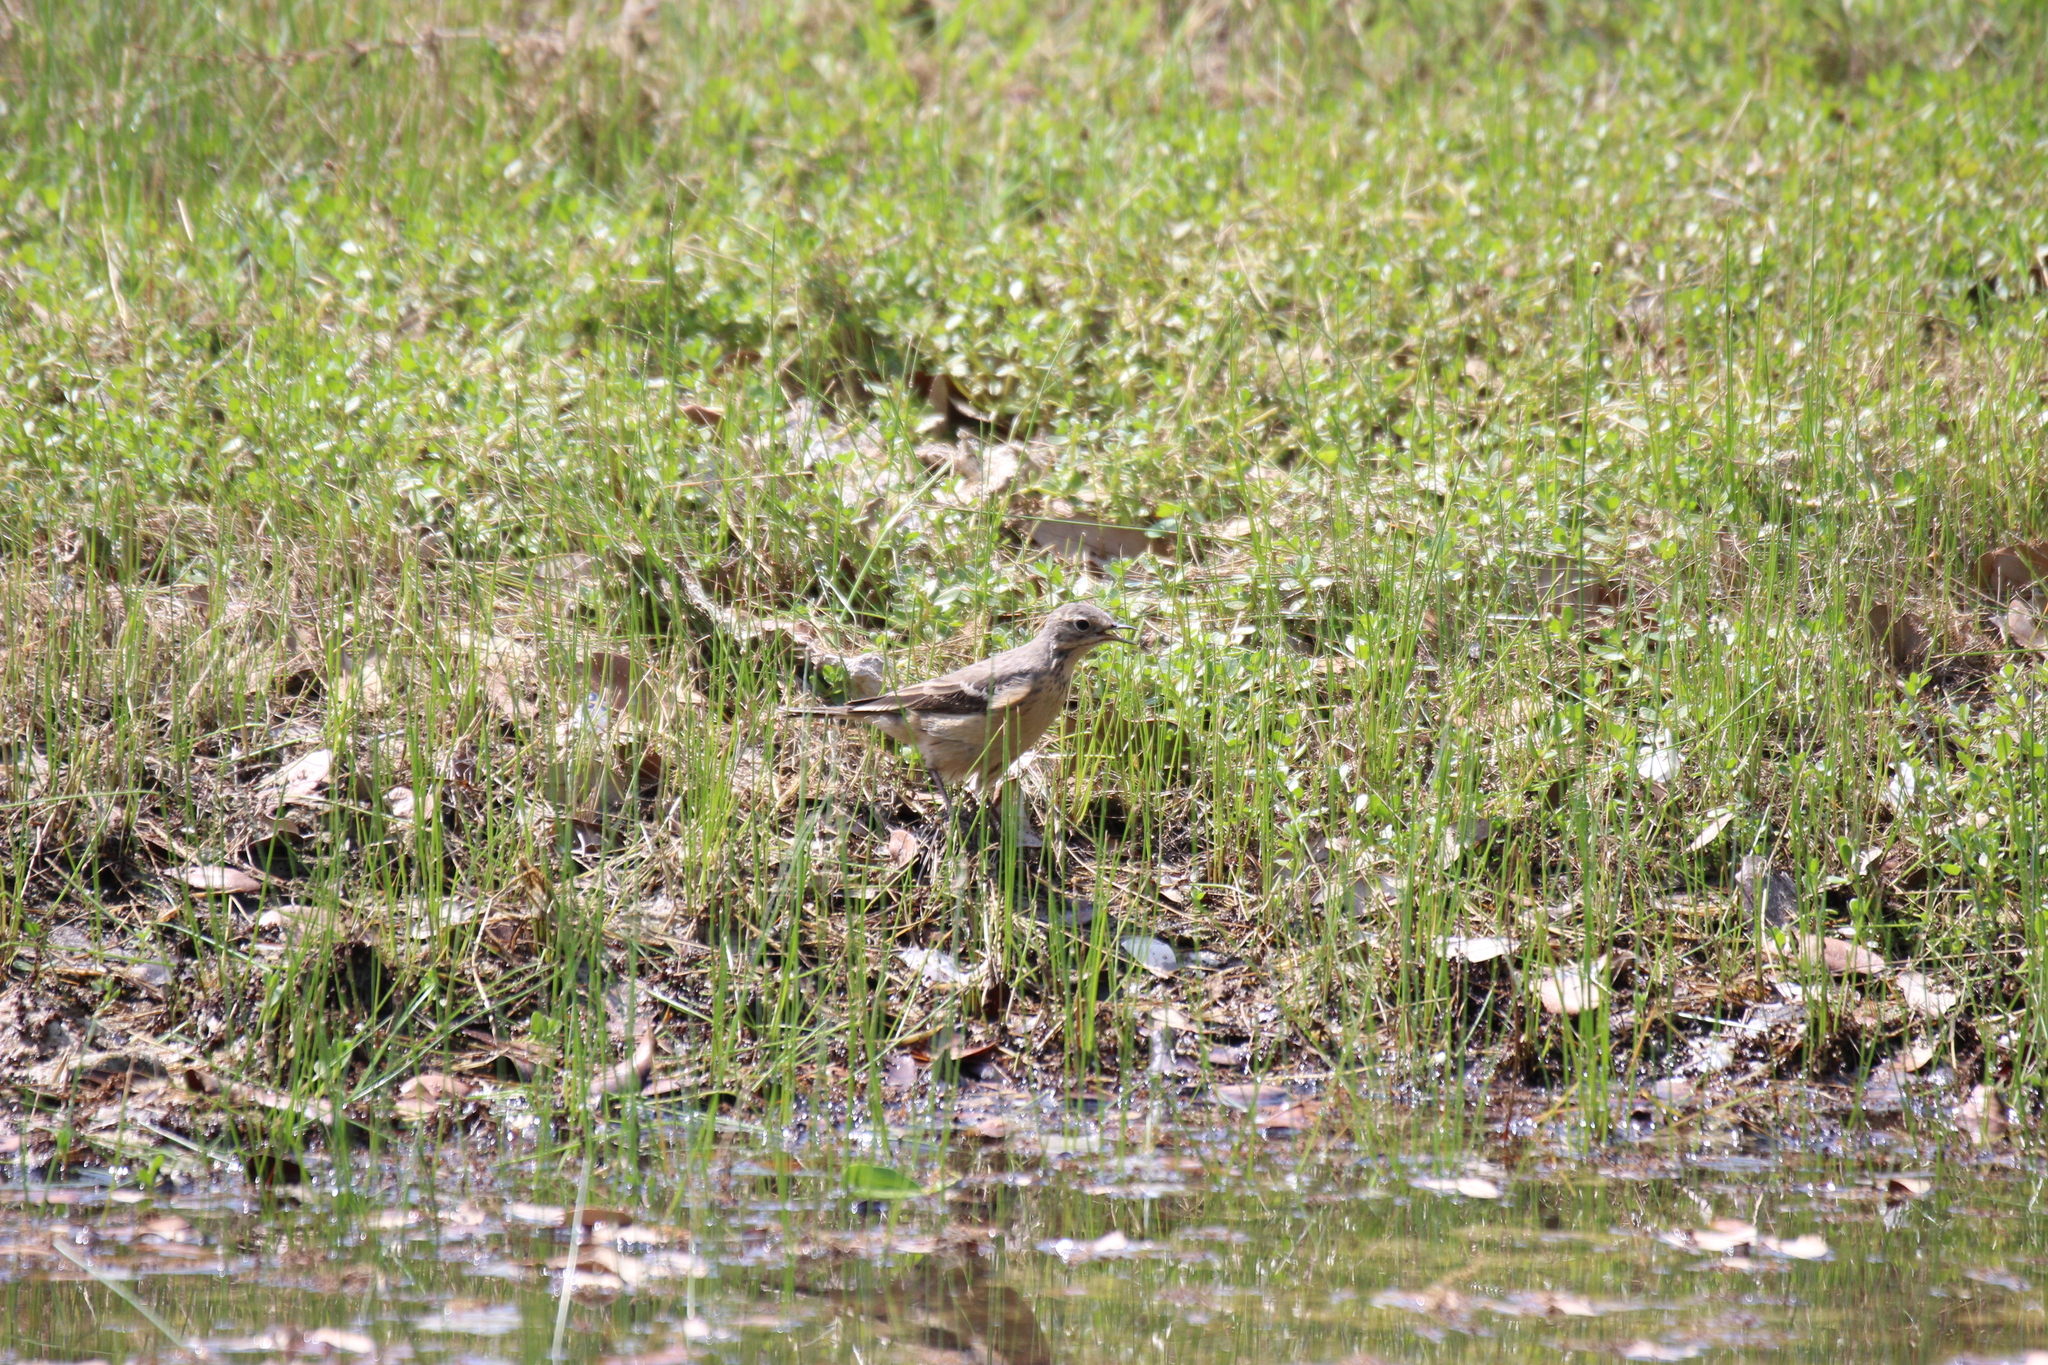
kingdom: Animalia
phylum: Chordata
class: Aves
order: Passeriformes
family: Motacillidae
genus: Anthus
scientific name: Anthus rubescens
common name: Buff-bellied pipit
